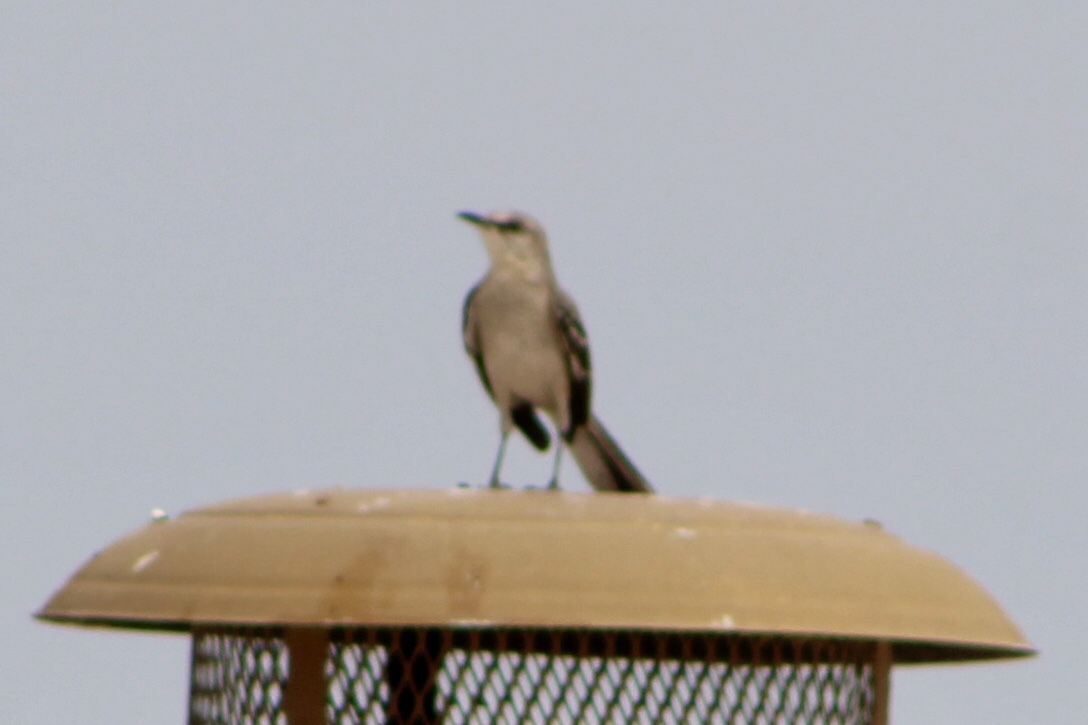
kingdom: Animalia
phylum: Chordata
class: Aves
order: Passeriformes
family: Mimidae
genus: Mimus
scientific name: Mimus polyglottos
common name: Northern mockingbird
